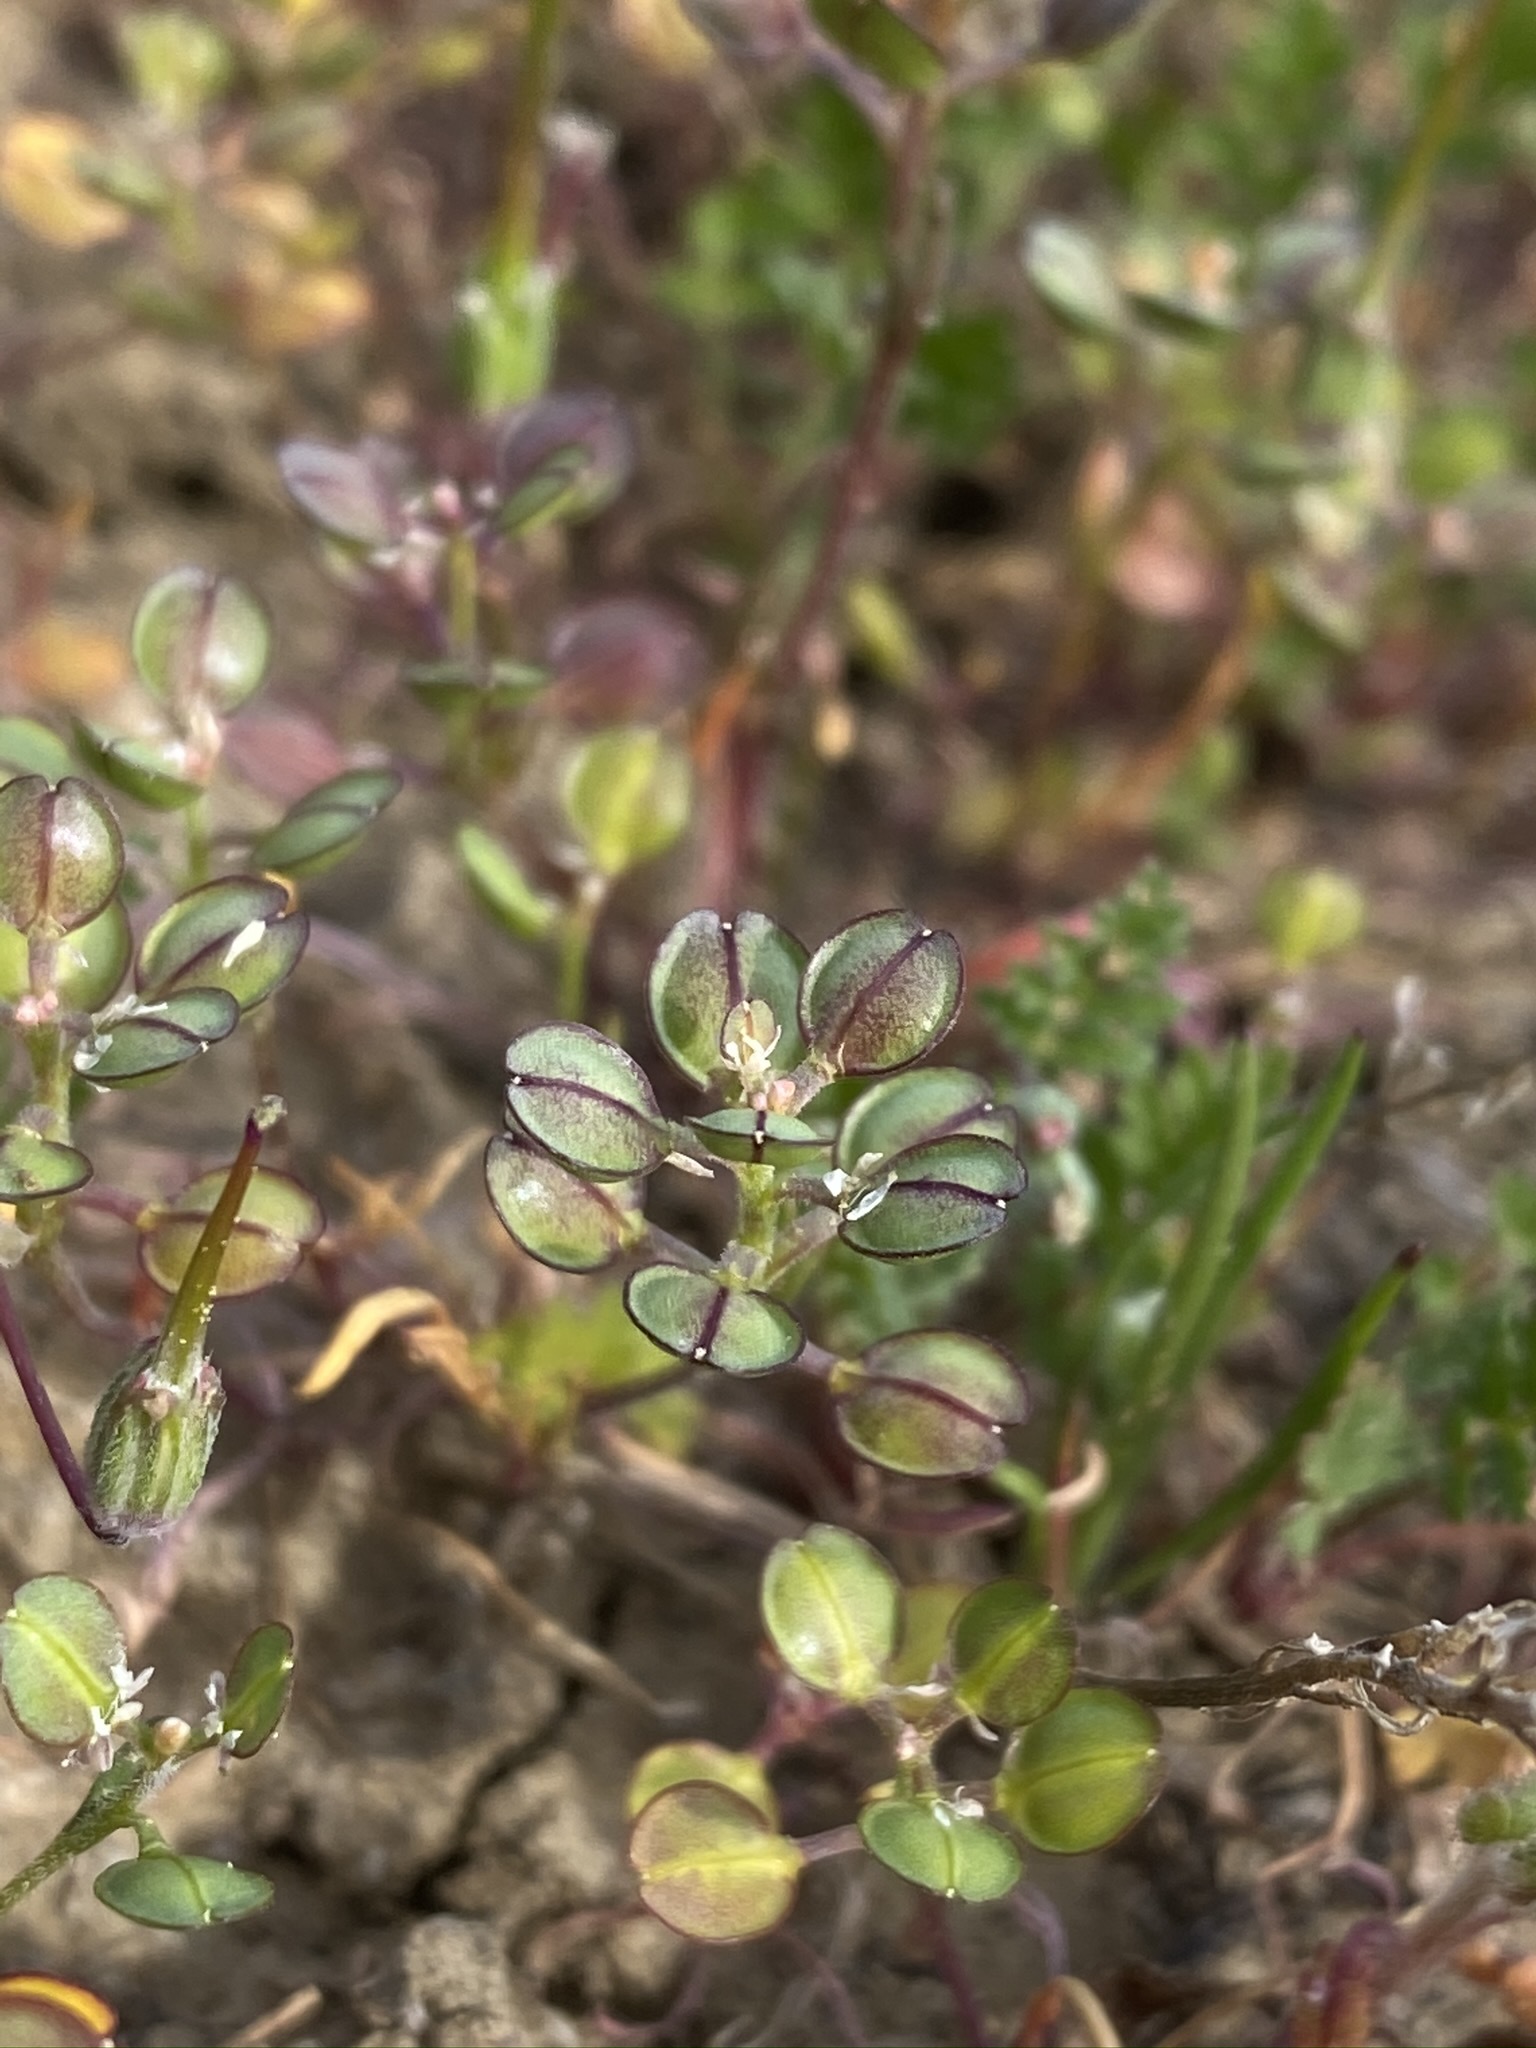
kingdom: Plantae
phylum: Tracheophyta
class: Magnoliopsida
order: Brassicales
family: Brassicaceae
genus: Lepidium
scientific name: Lepidium nitidum
